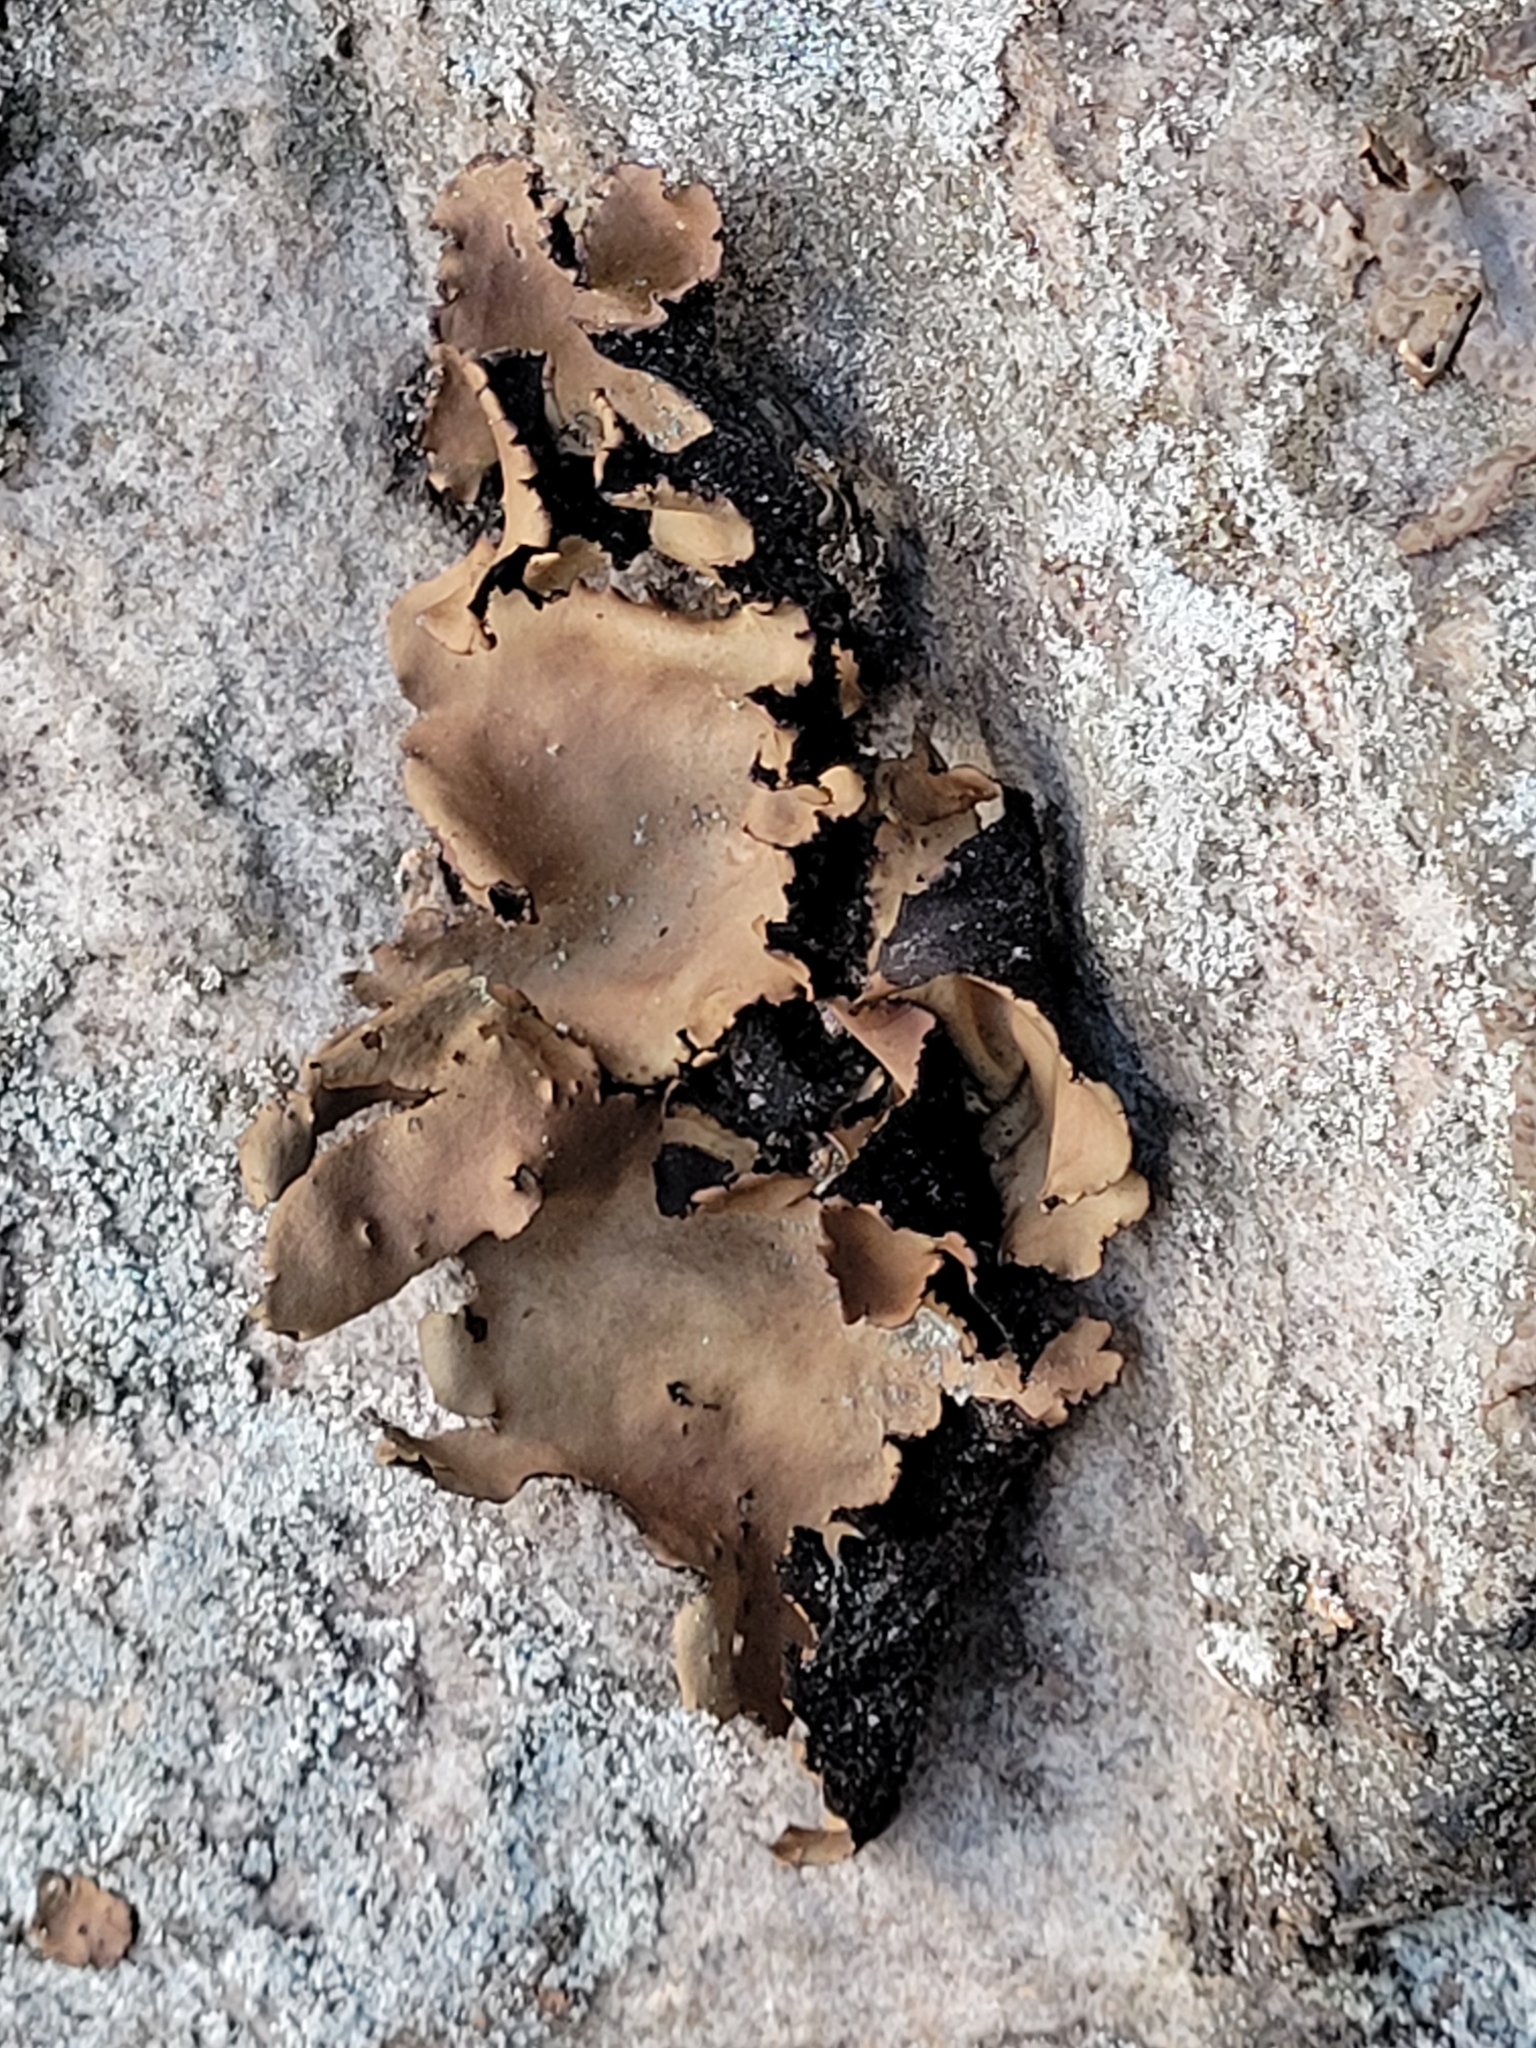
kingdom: Fungi
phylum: Ascomycota
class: Lecanoromycetes
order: Umbilicariales
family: Umbilicariaceae
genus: Umbilicaria
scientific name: Umbilicaria mammulata
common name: Smooth rock tripe
